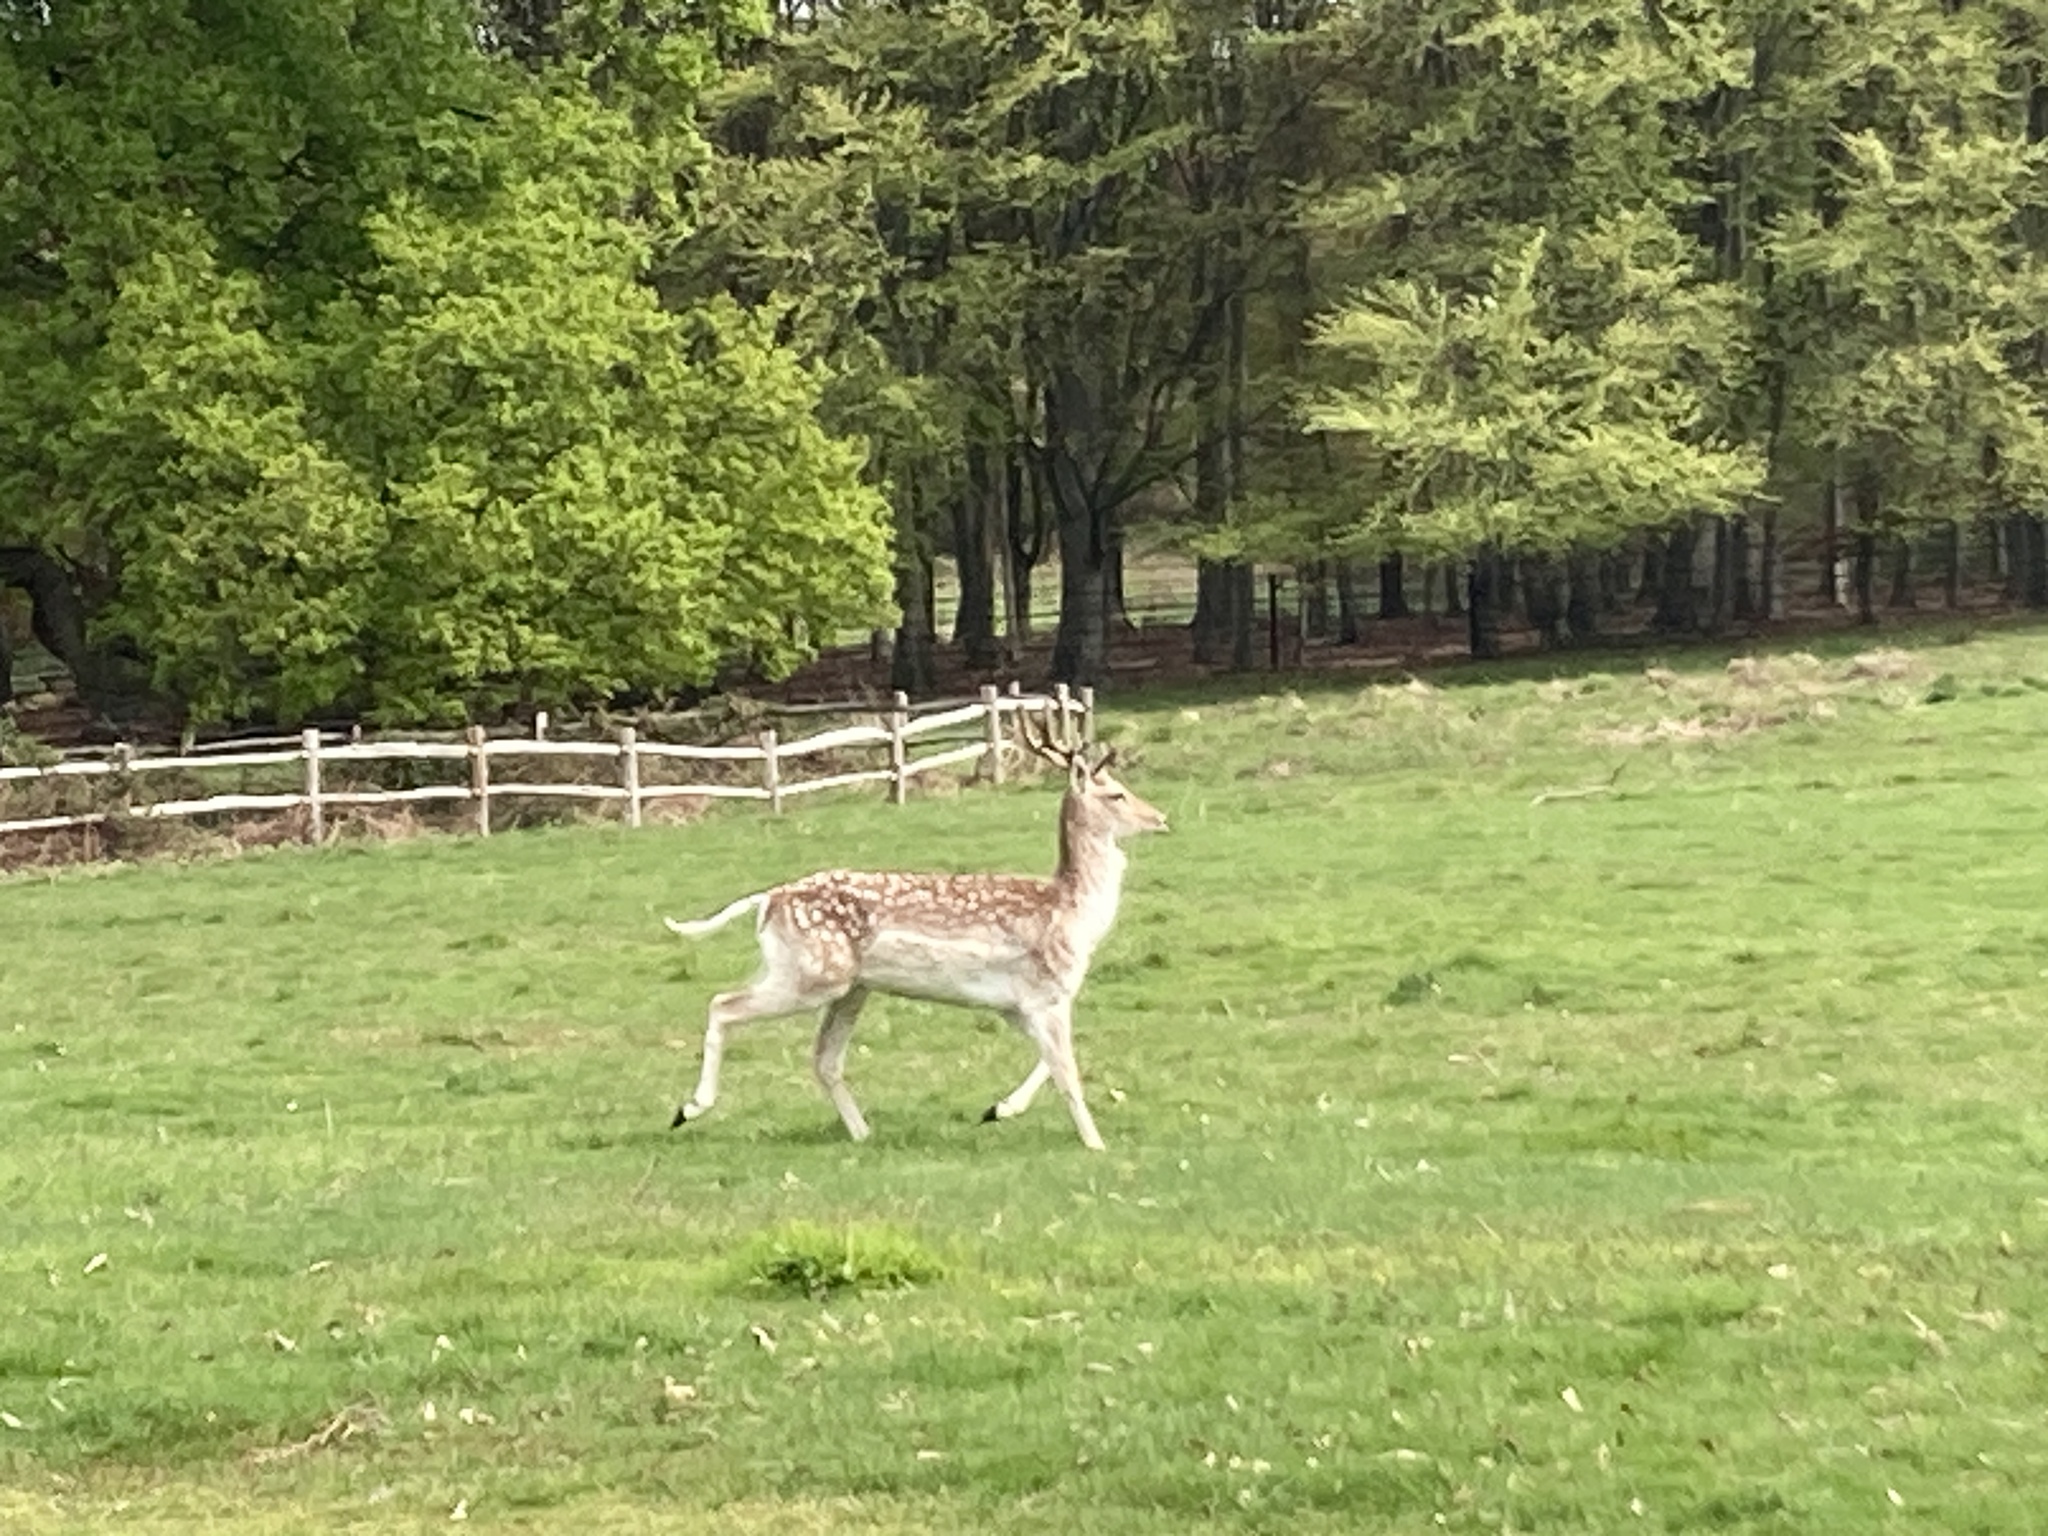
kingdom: Animalia
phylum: Chordata
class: Mammalia
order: Artiodactyla
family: Cervidae
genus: Dama
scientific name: Dama dama
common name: Fallow deer
